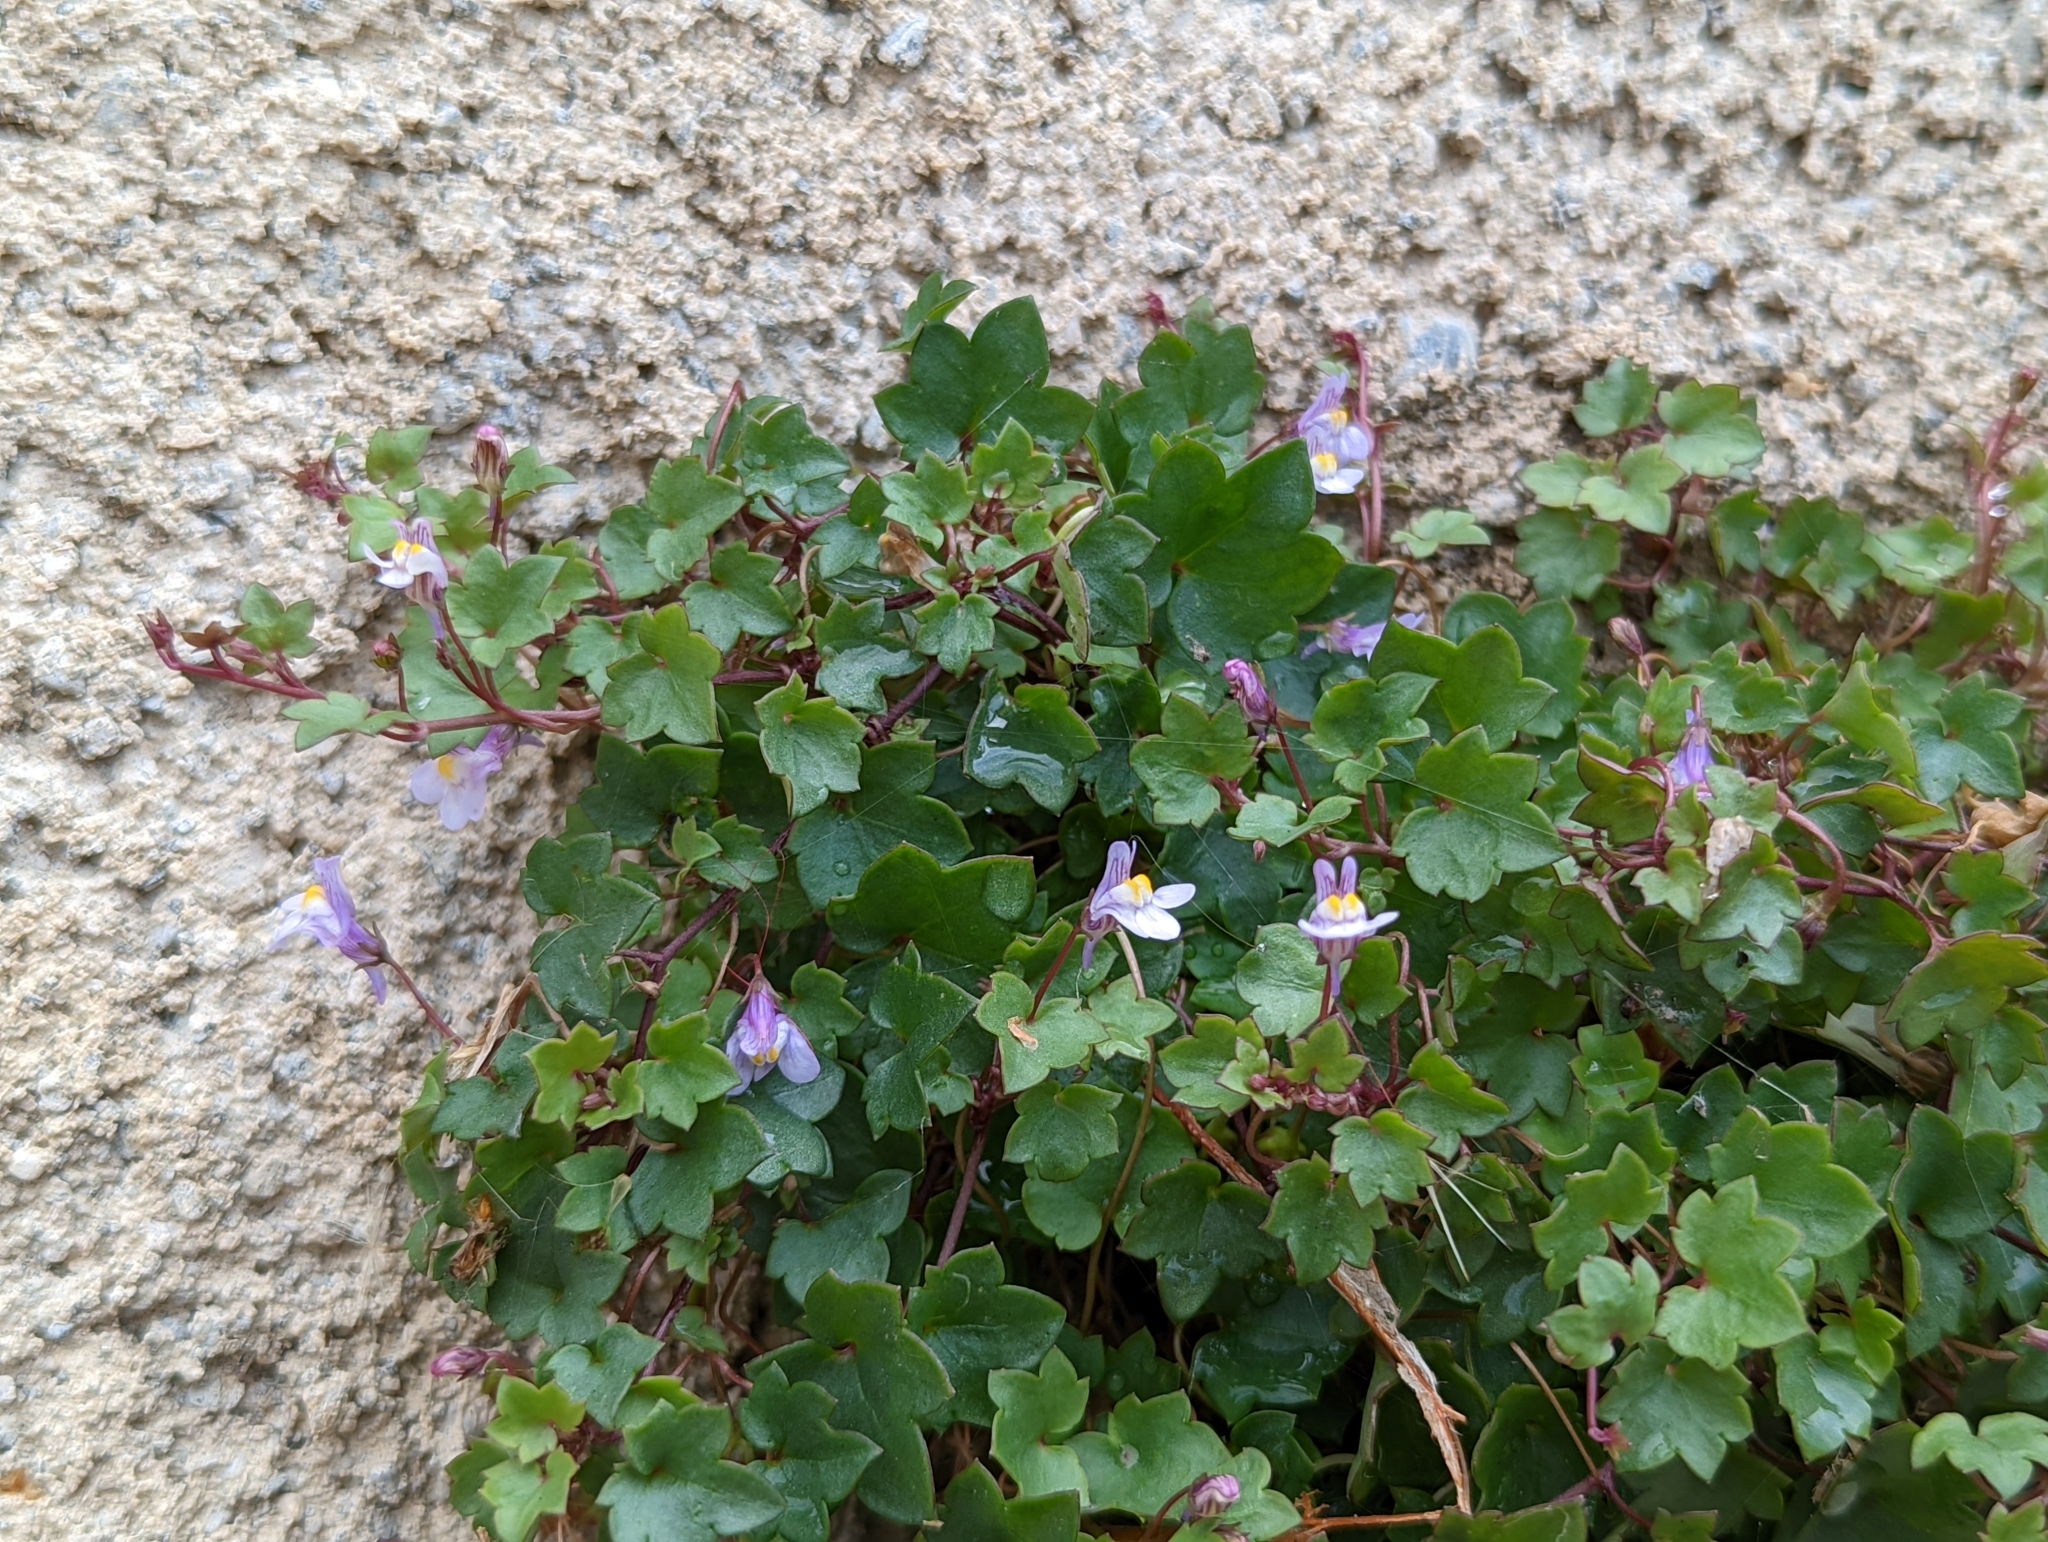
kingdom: Plantae
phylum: Tracheophyta
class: Magnoliopsida
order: Lamiales
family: Plantaginaceae
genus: Cymbalaria
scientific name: Cymbalaria muralis
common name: Ivy-leaved toadflax
